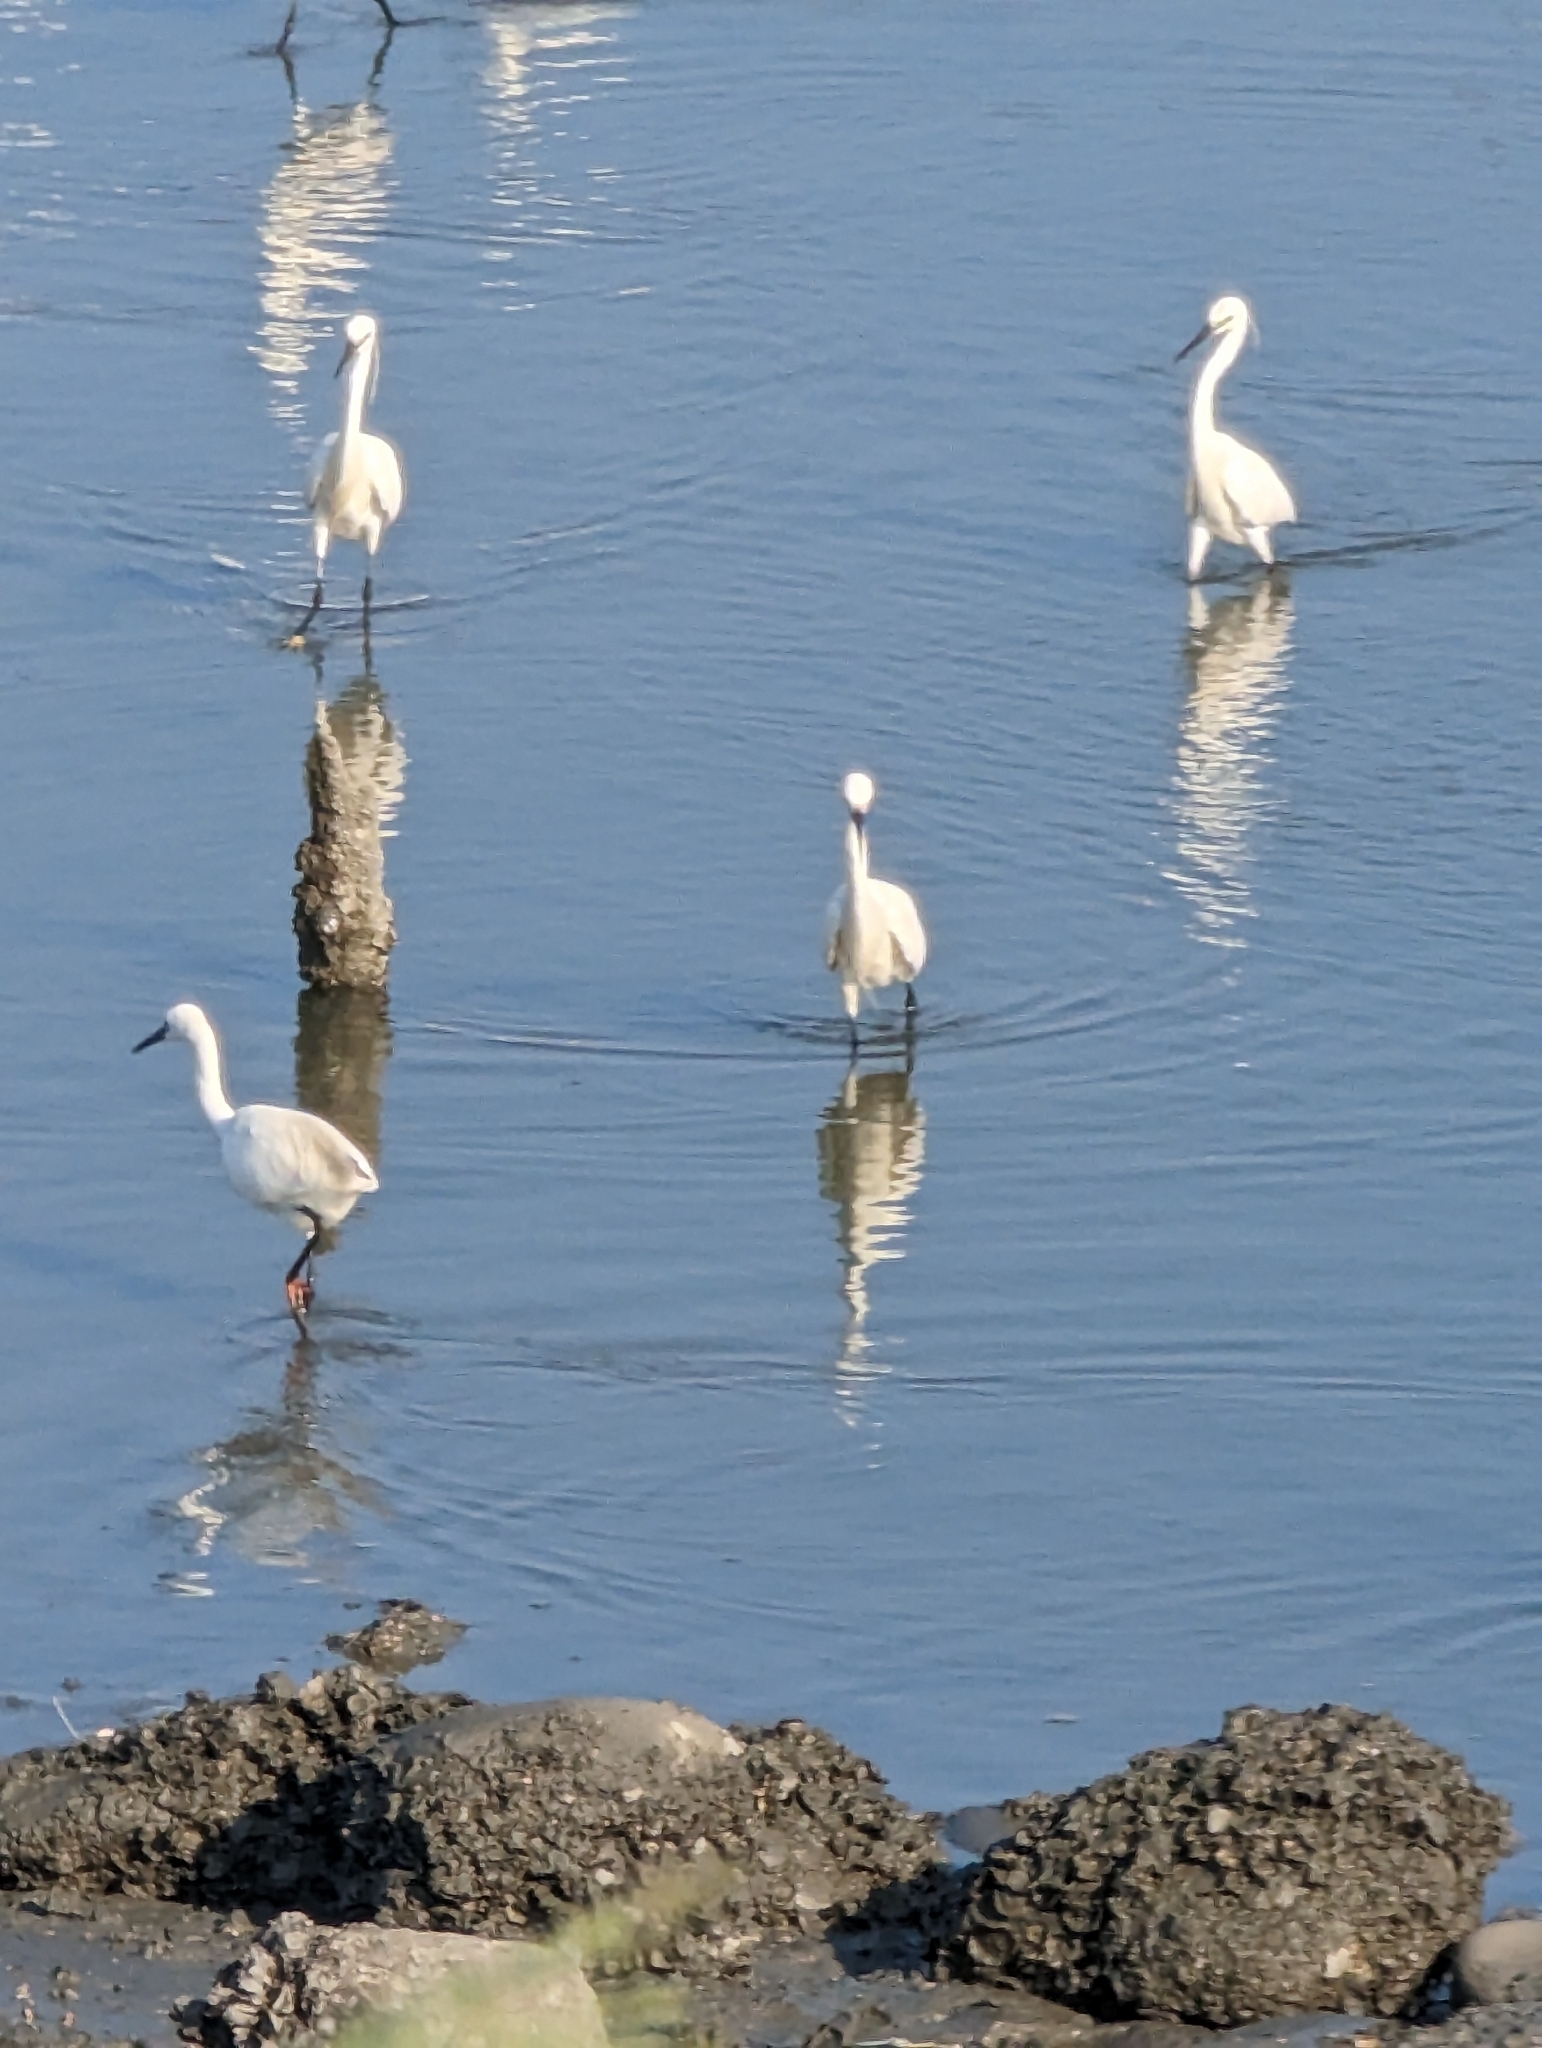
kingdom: Animalia
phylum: Chordata
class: Aves
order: Pelecaniformes
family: Ardeidae
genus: Egretta
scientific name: Egretta garzetta
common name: Little egret
